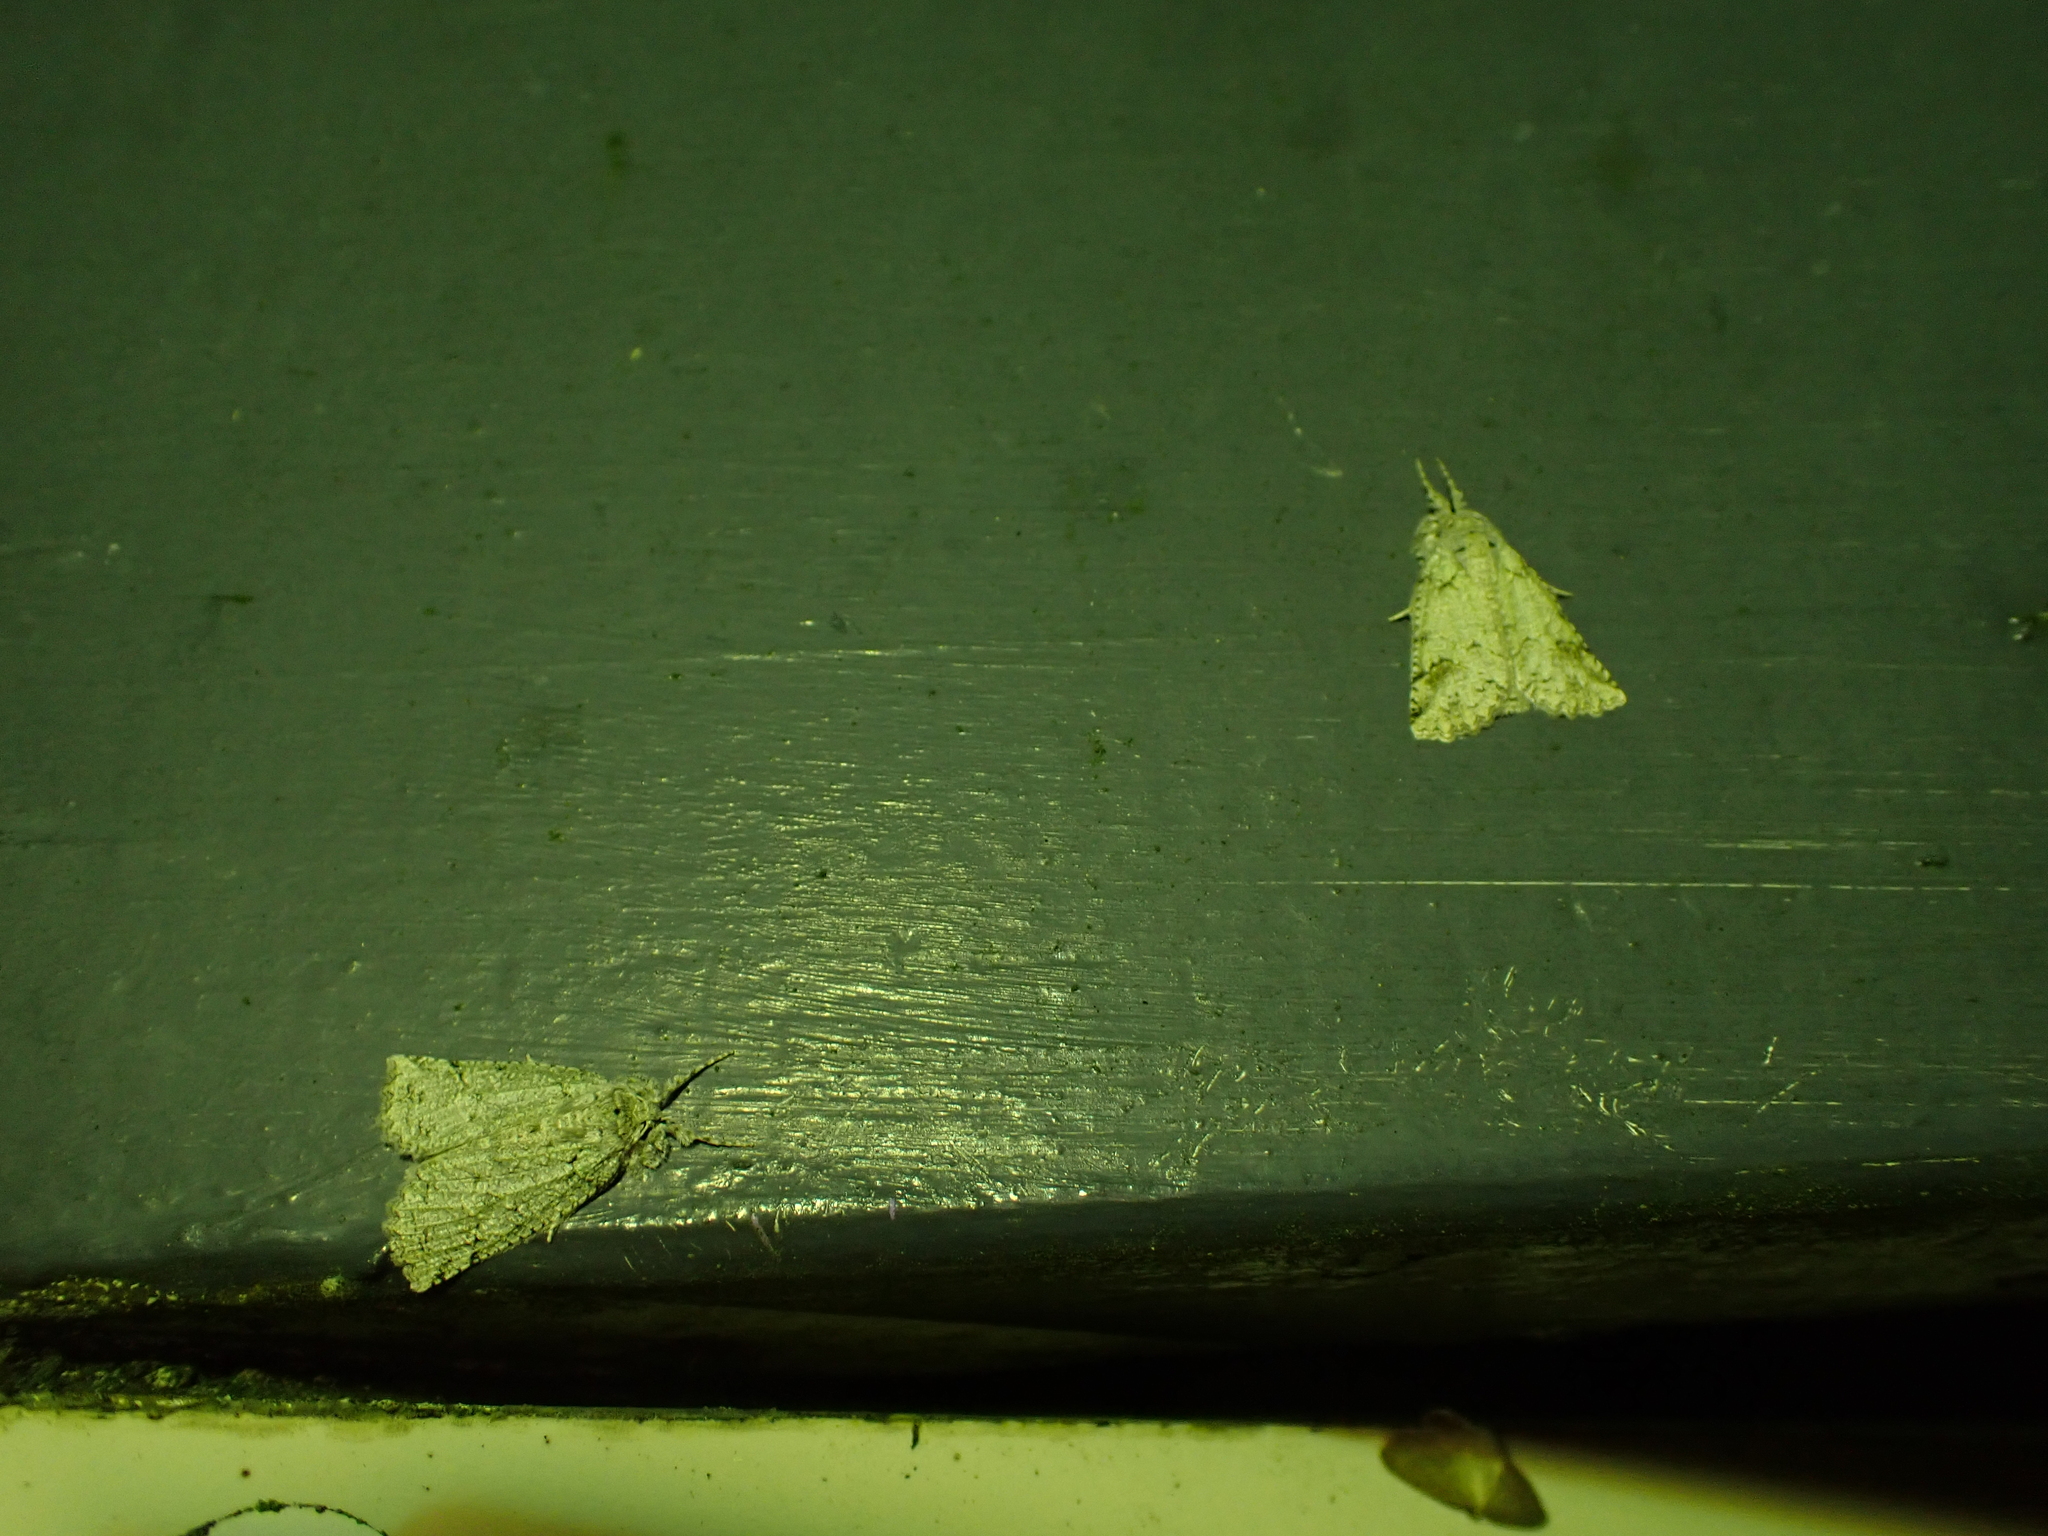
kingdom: Animalia
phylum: Arthropoda
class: Insecta
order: Lepidoptera
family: Geometridae
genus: Declana
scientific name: Declana floccosa
